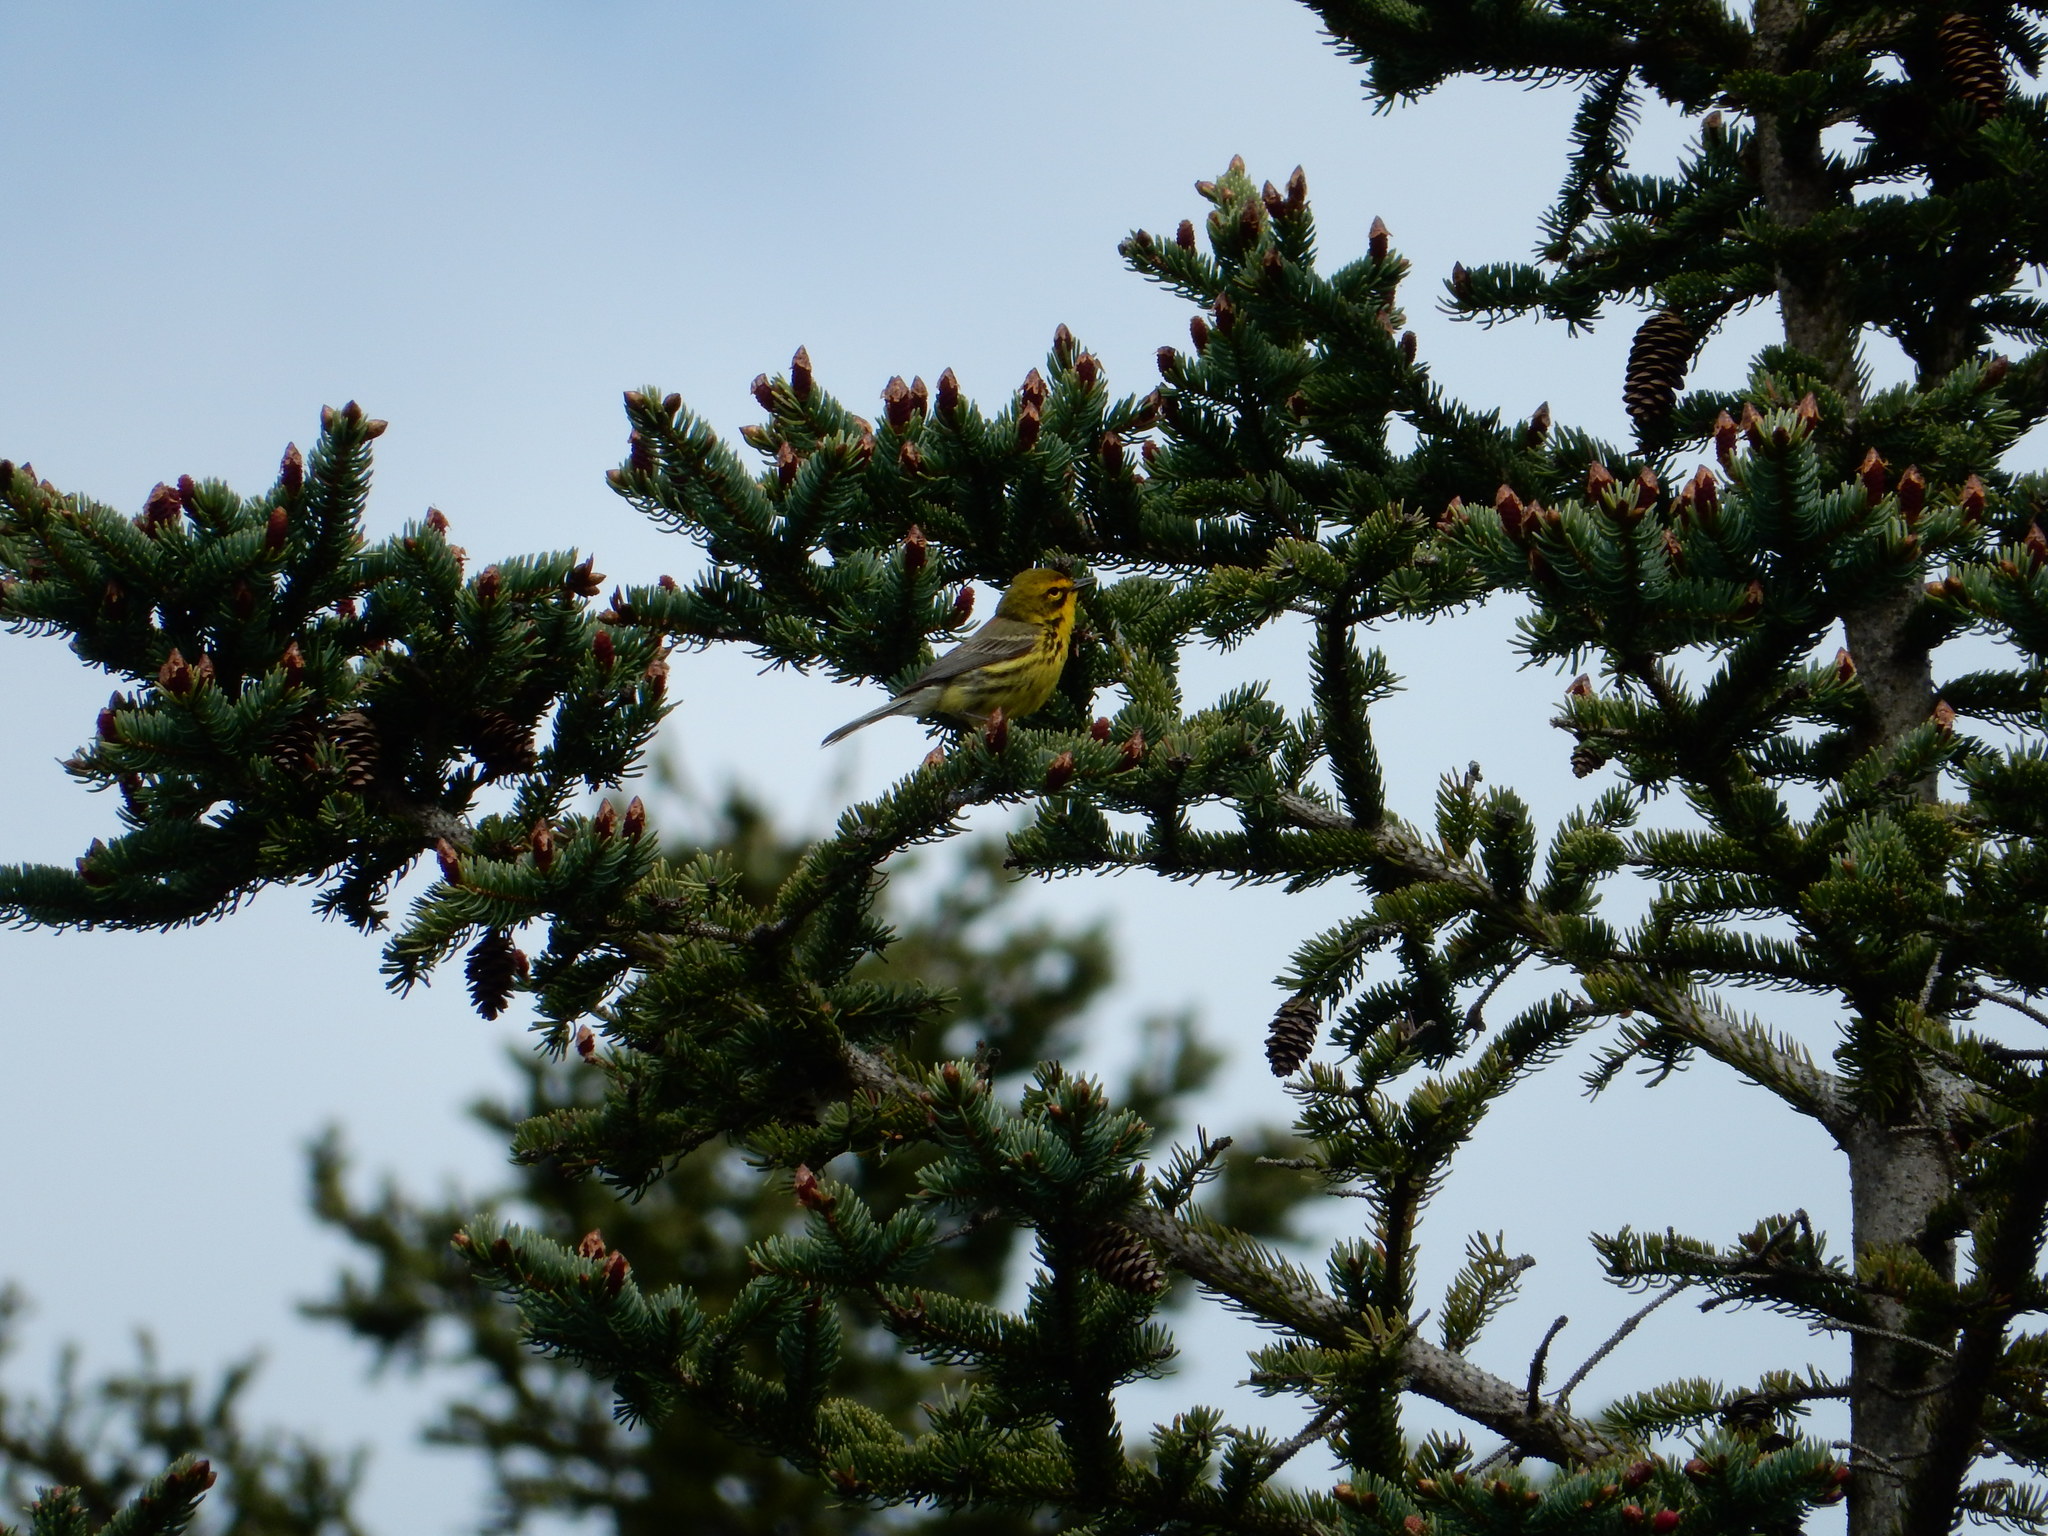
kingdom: Animalia
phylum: Chordata
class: Aves
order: Passeriformes
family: Parulidae
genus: Setophaga
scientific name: Setophaga discolor
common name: Prairie warbler
